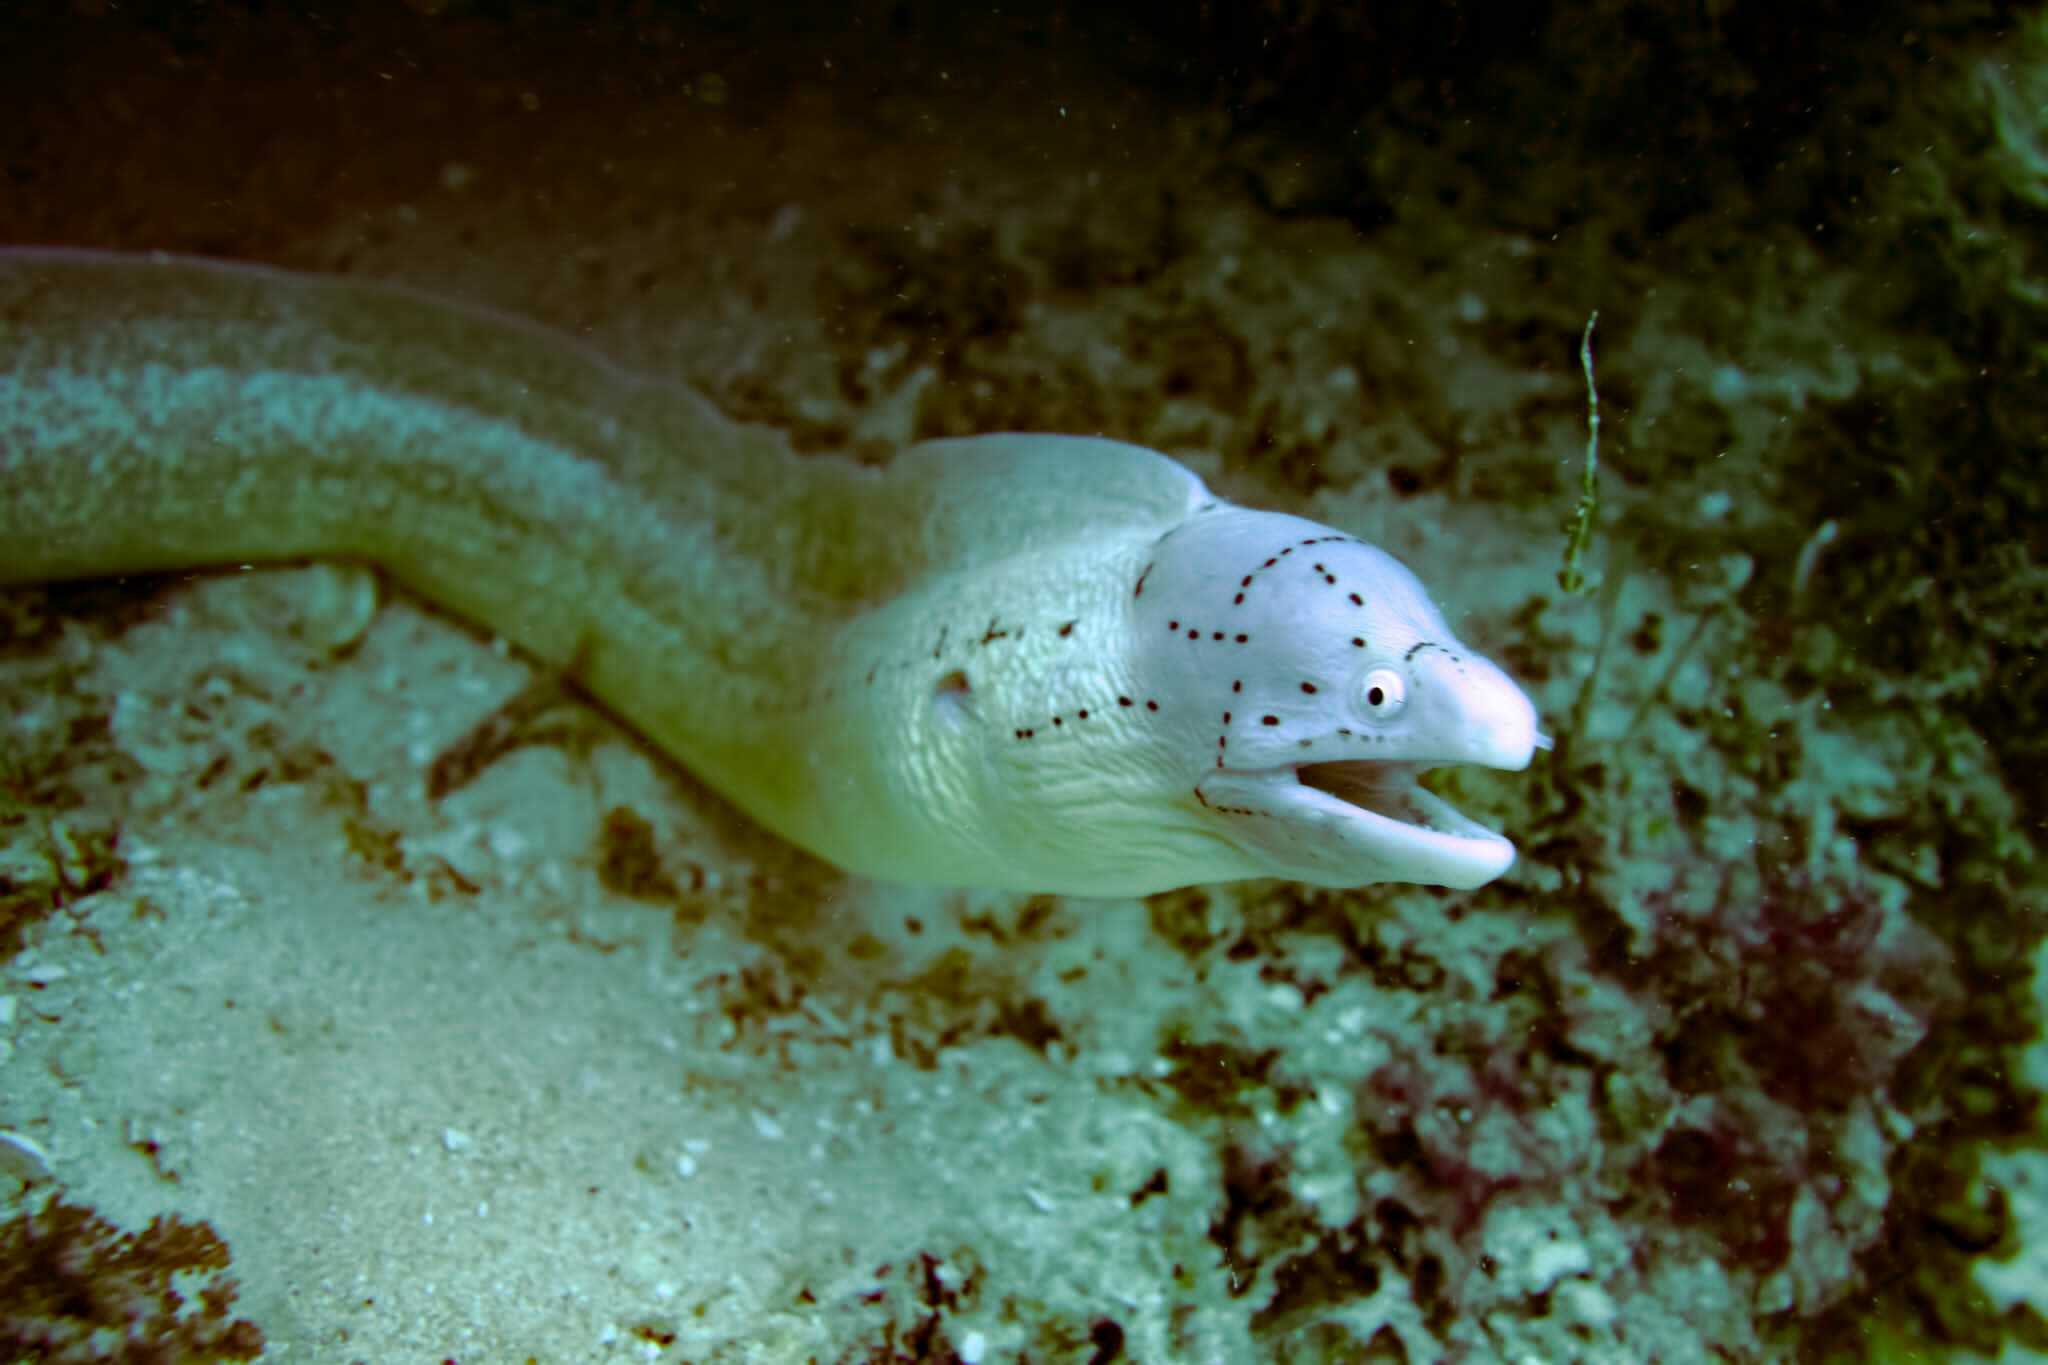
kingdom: Animalia
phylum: Chordata
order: Anguilliformes
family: Muraenidae
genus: Gymnothorax
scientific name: Gymnothorax griseus
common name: Geometric moray
